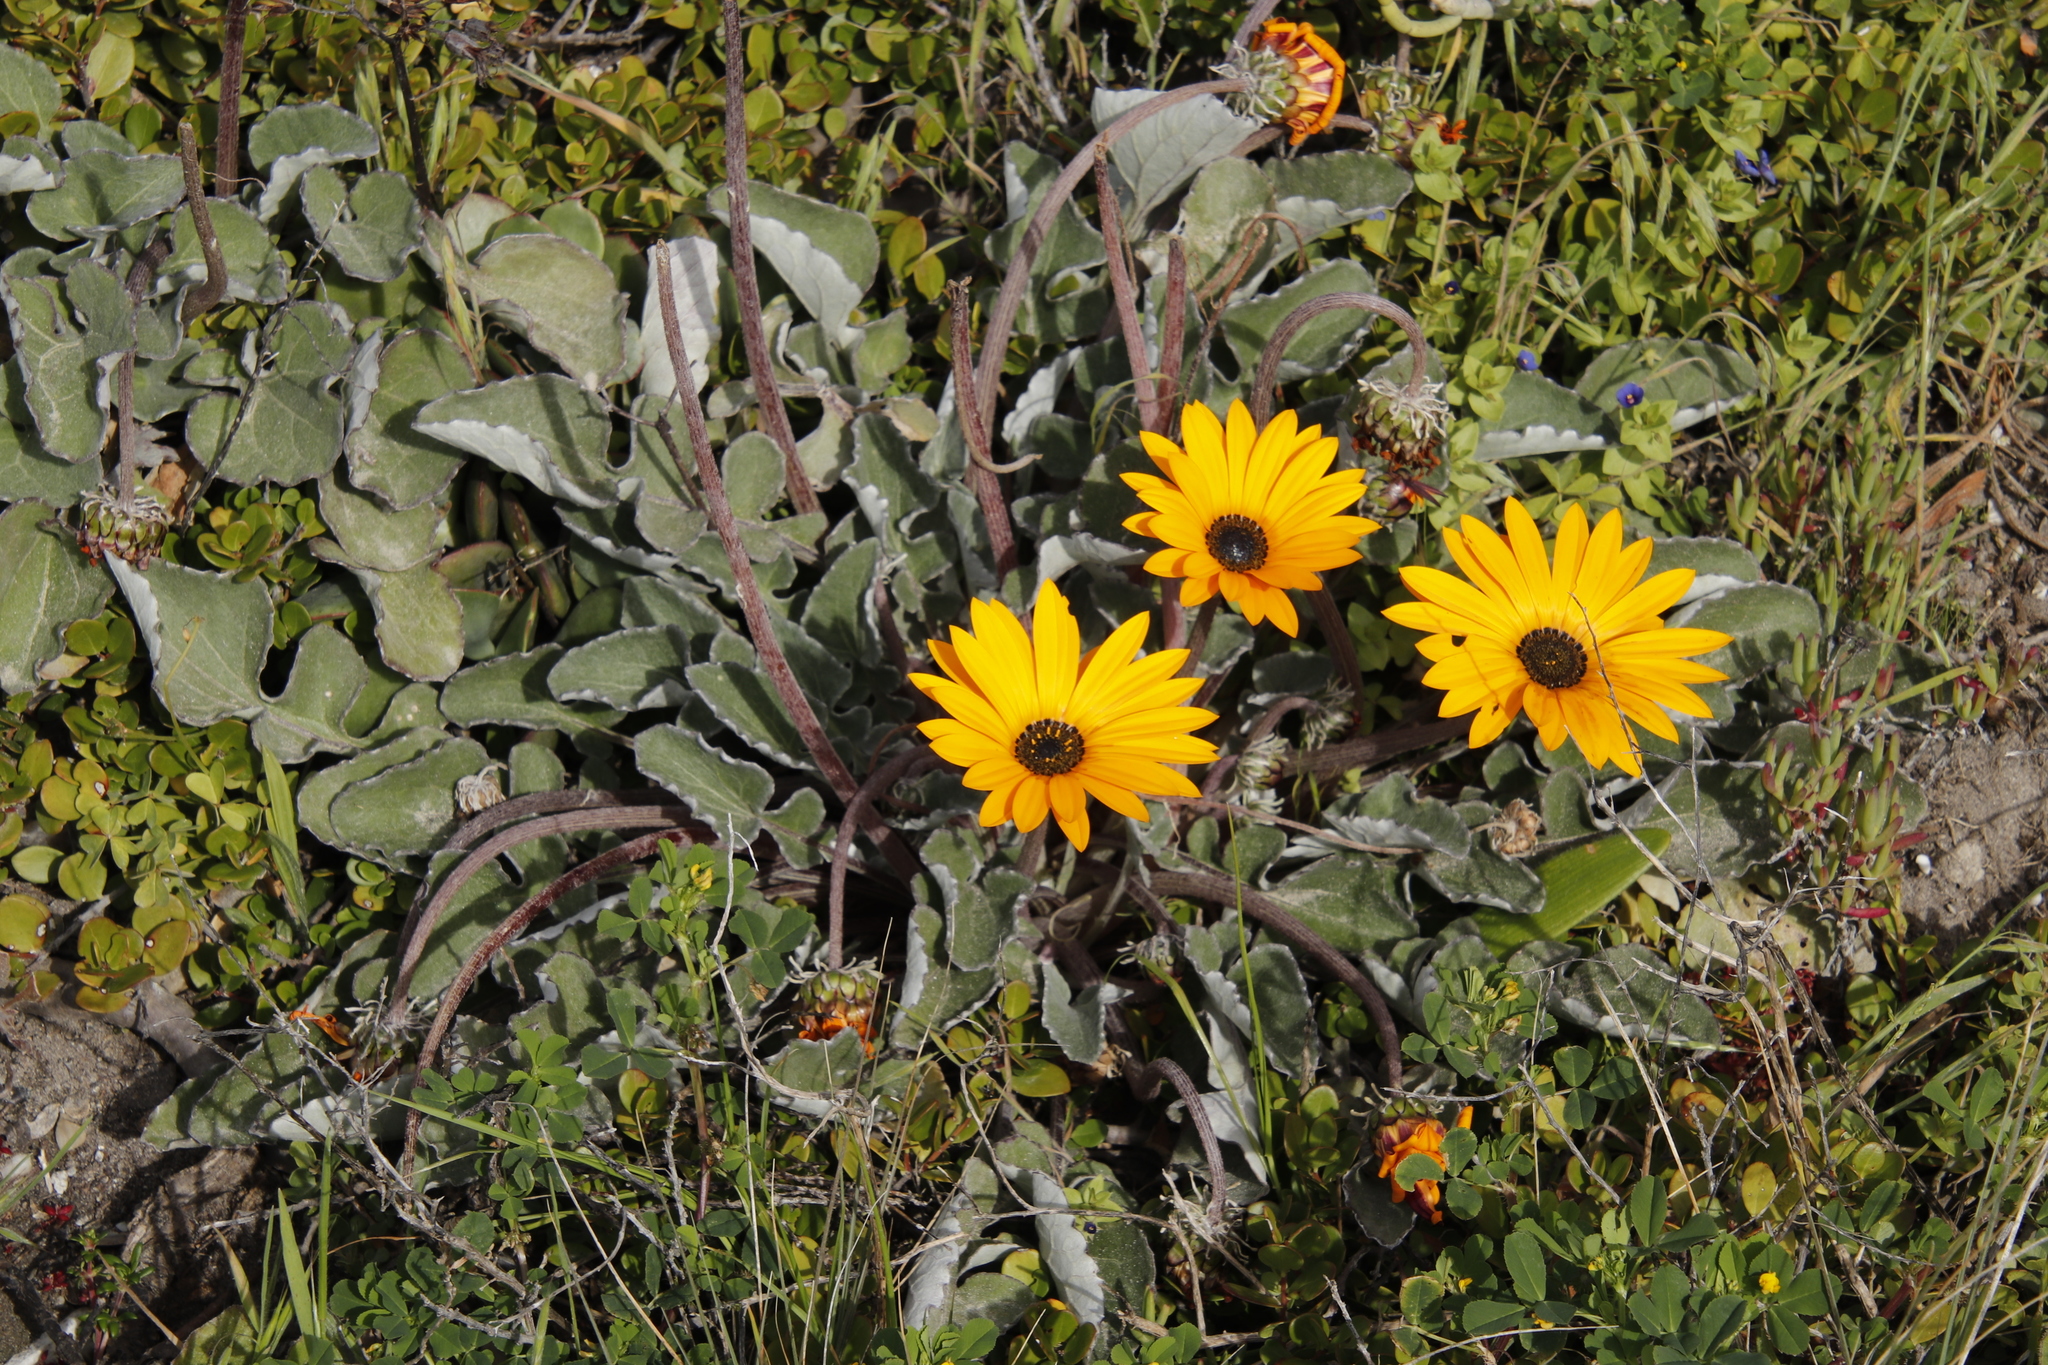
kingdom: Plantae
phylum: Tracheophyta
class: Magnoliopsida
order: Asterales
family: Asteraceae
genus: Arctotis
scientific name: Arctotis acaulis
